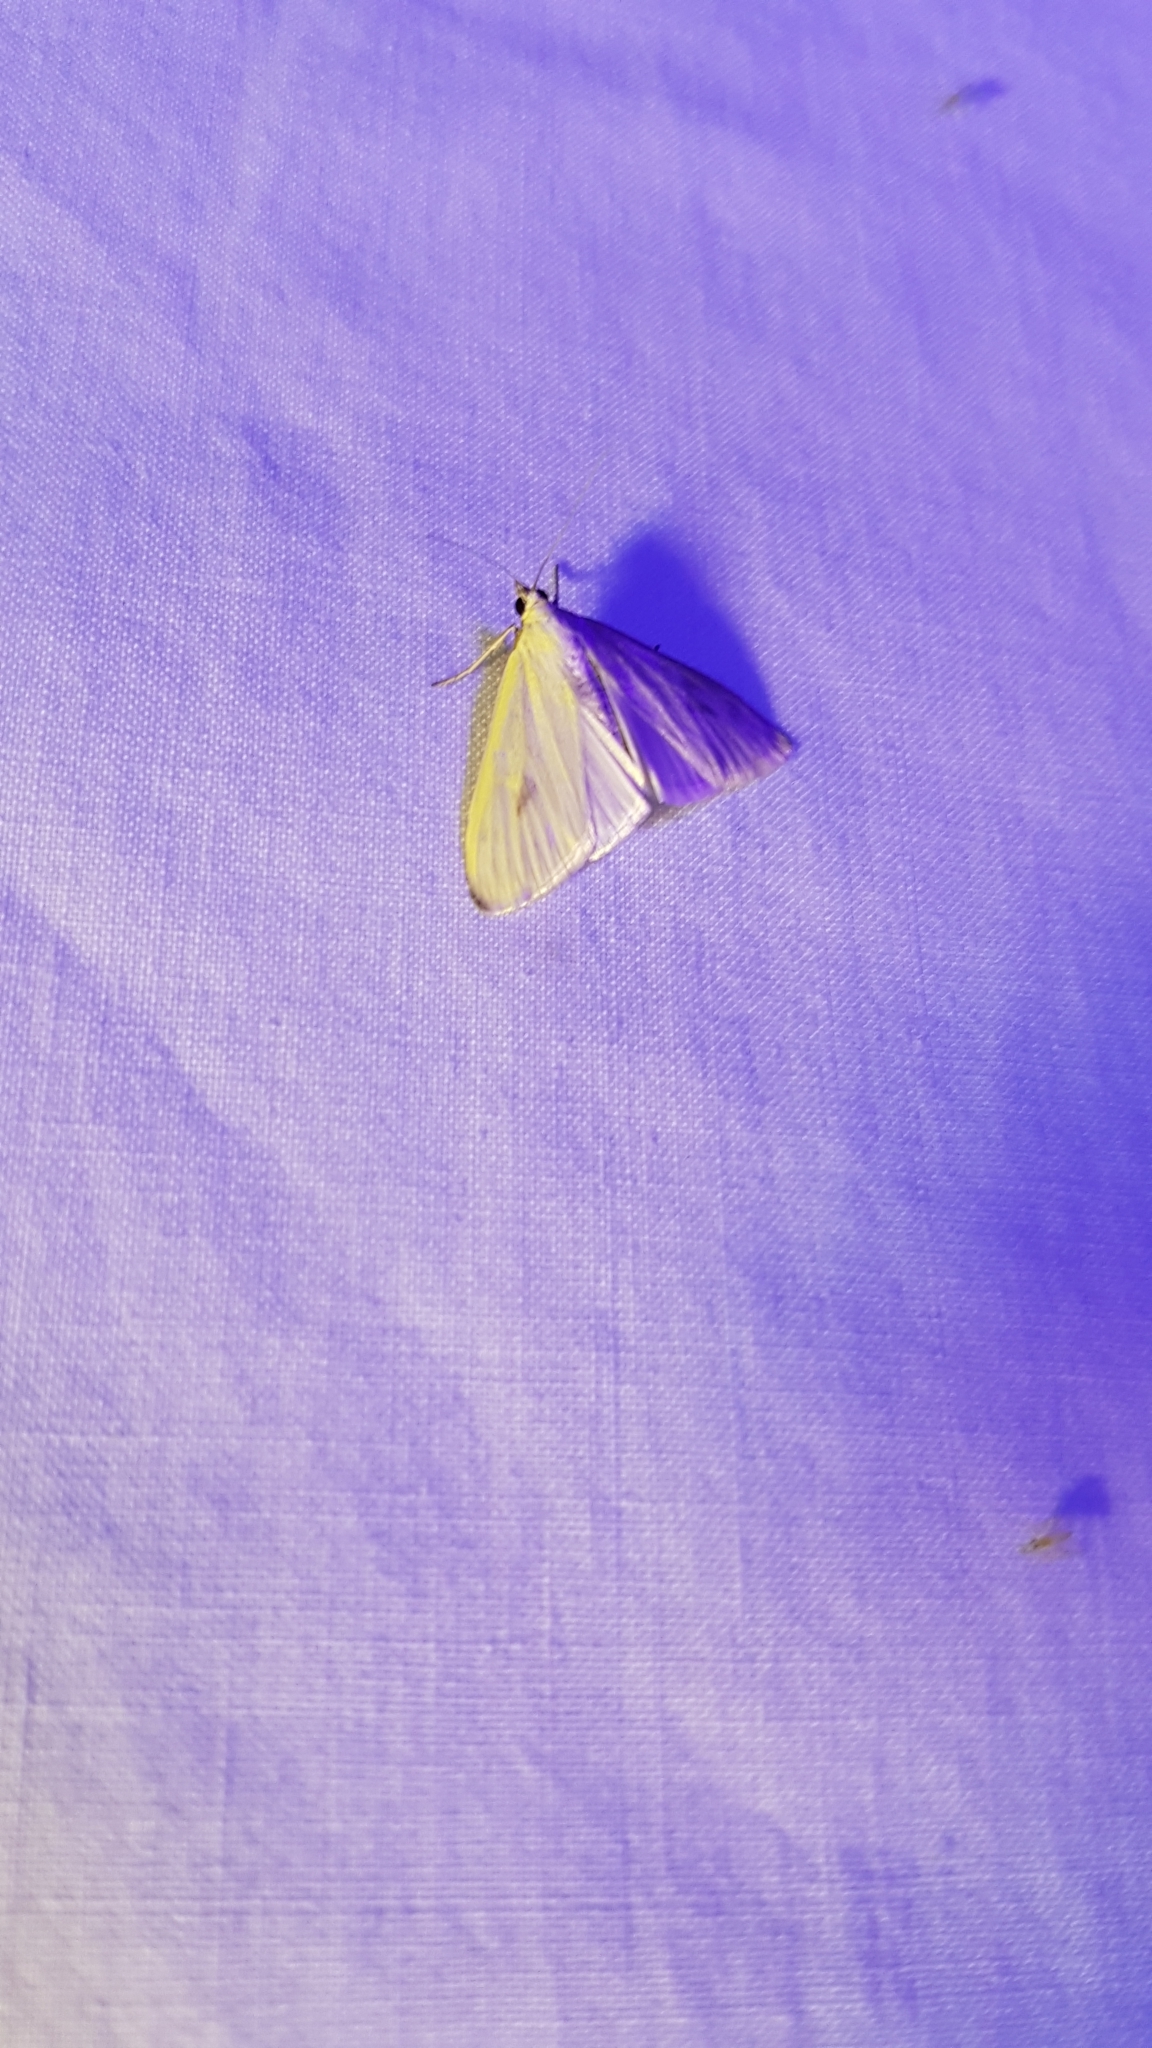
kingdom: Animalia
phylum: Arthropoda
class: Insecta
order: Lepidoptera
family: Crambidae
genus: Sitochroa
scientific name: Sitochroa palealis
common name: Greenish-yellow sitochroa moth
